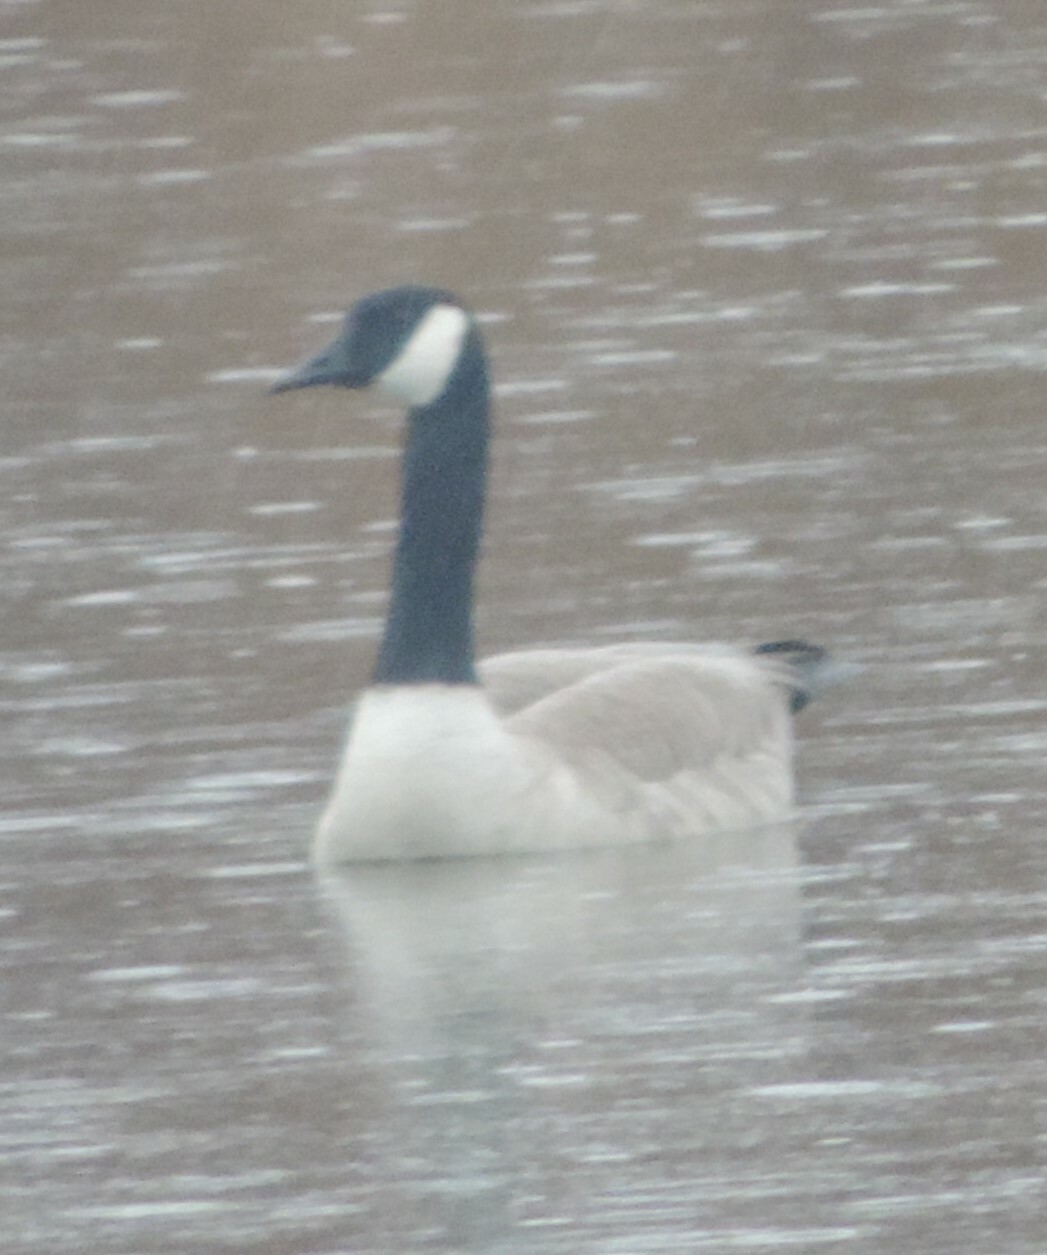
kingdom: Animalia
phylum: Chordata
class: Aves
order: Anseriformes
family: Anatidae
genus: Branta
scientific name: Branta canadensis
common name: Canada goose
